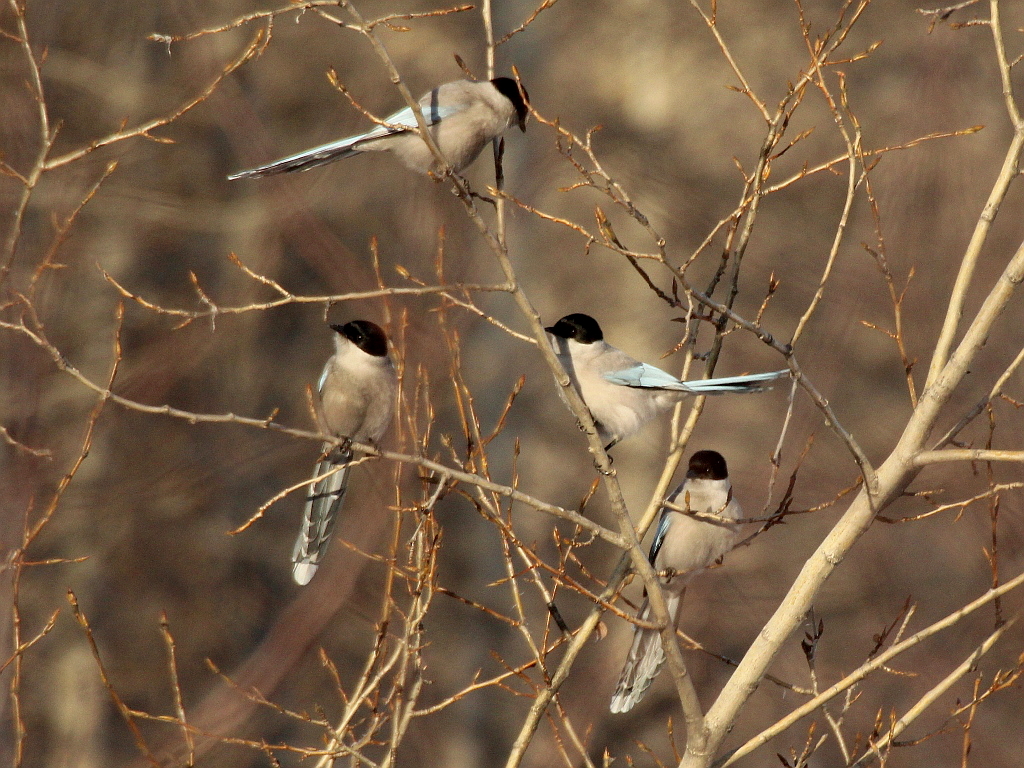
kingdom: Animalia
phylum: Chordata
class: Aves
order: Passeriformes
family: Corvidae
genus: Cyanopica
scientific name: Cyanopica cyanus
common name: Azure-winged magpie
